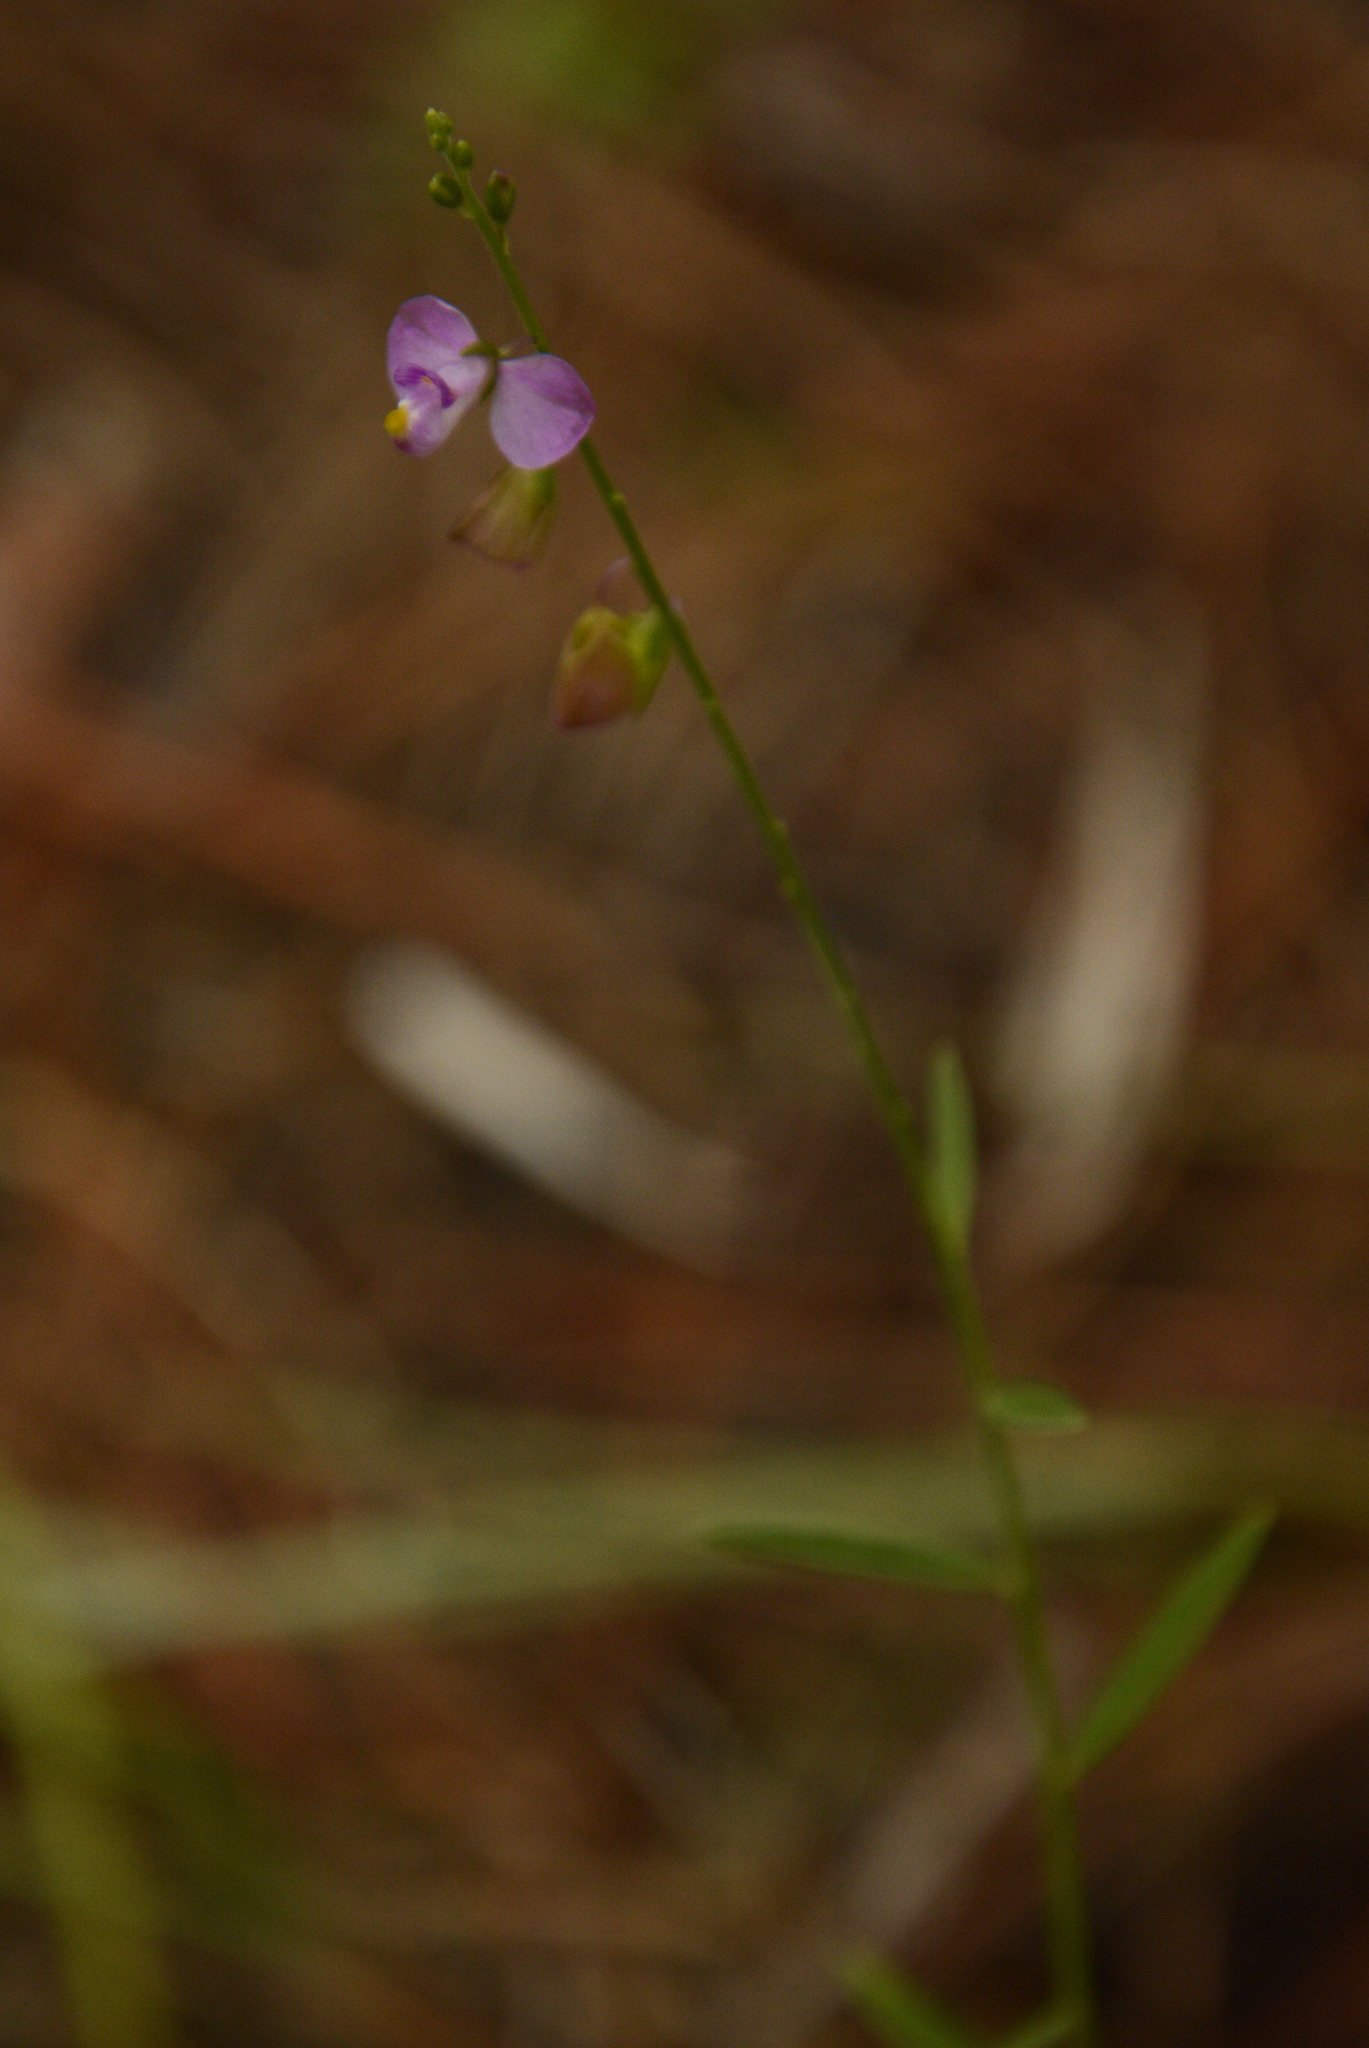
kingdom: Plantae
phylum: Tracheophyta
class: Magnoliopsida
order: Fabales
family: Polygalaceae
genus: Asemeia
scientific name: Asemeia grandiflora
